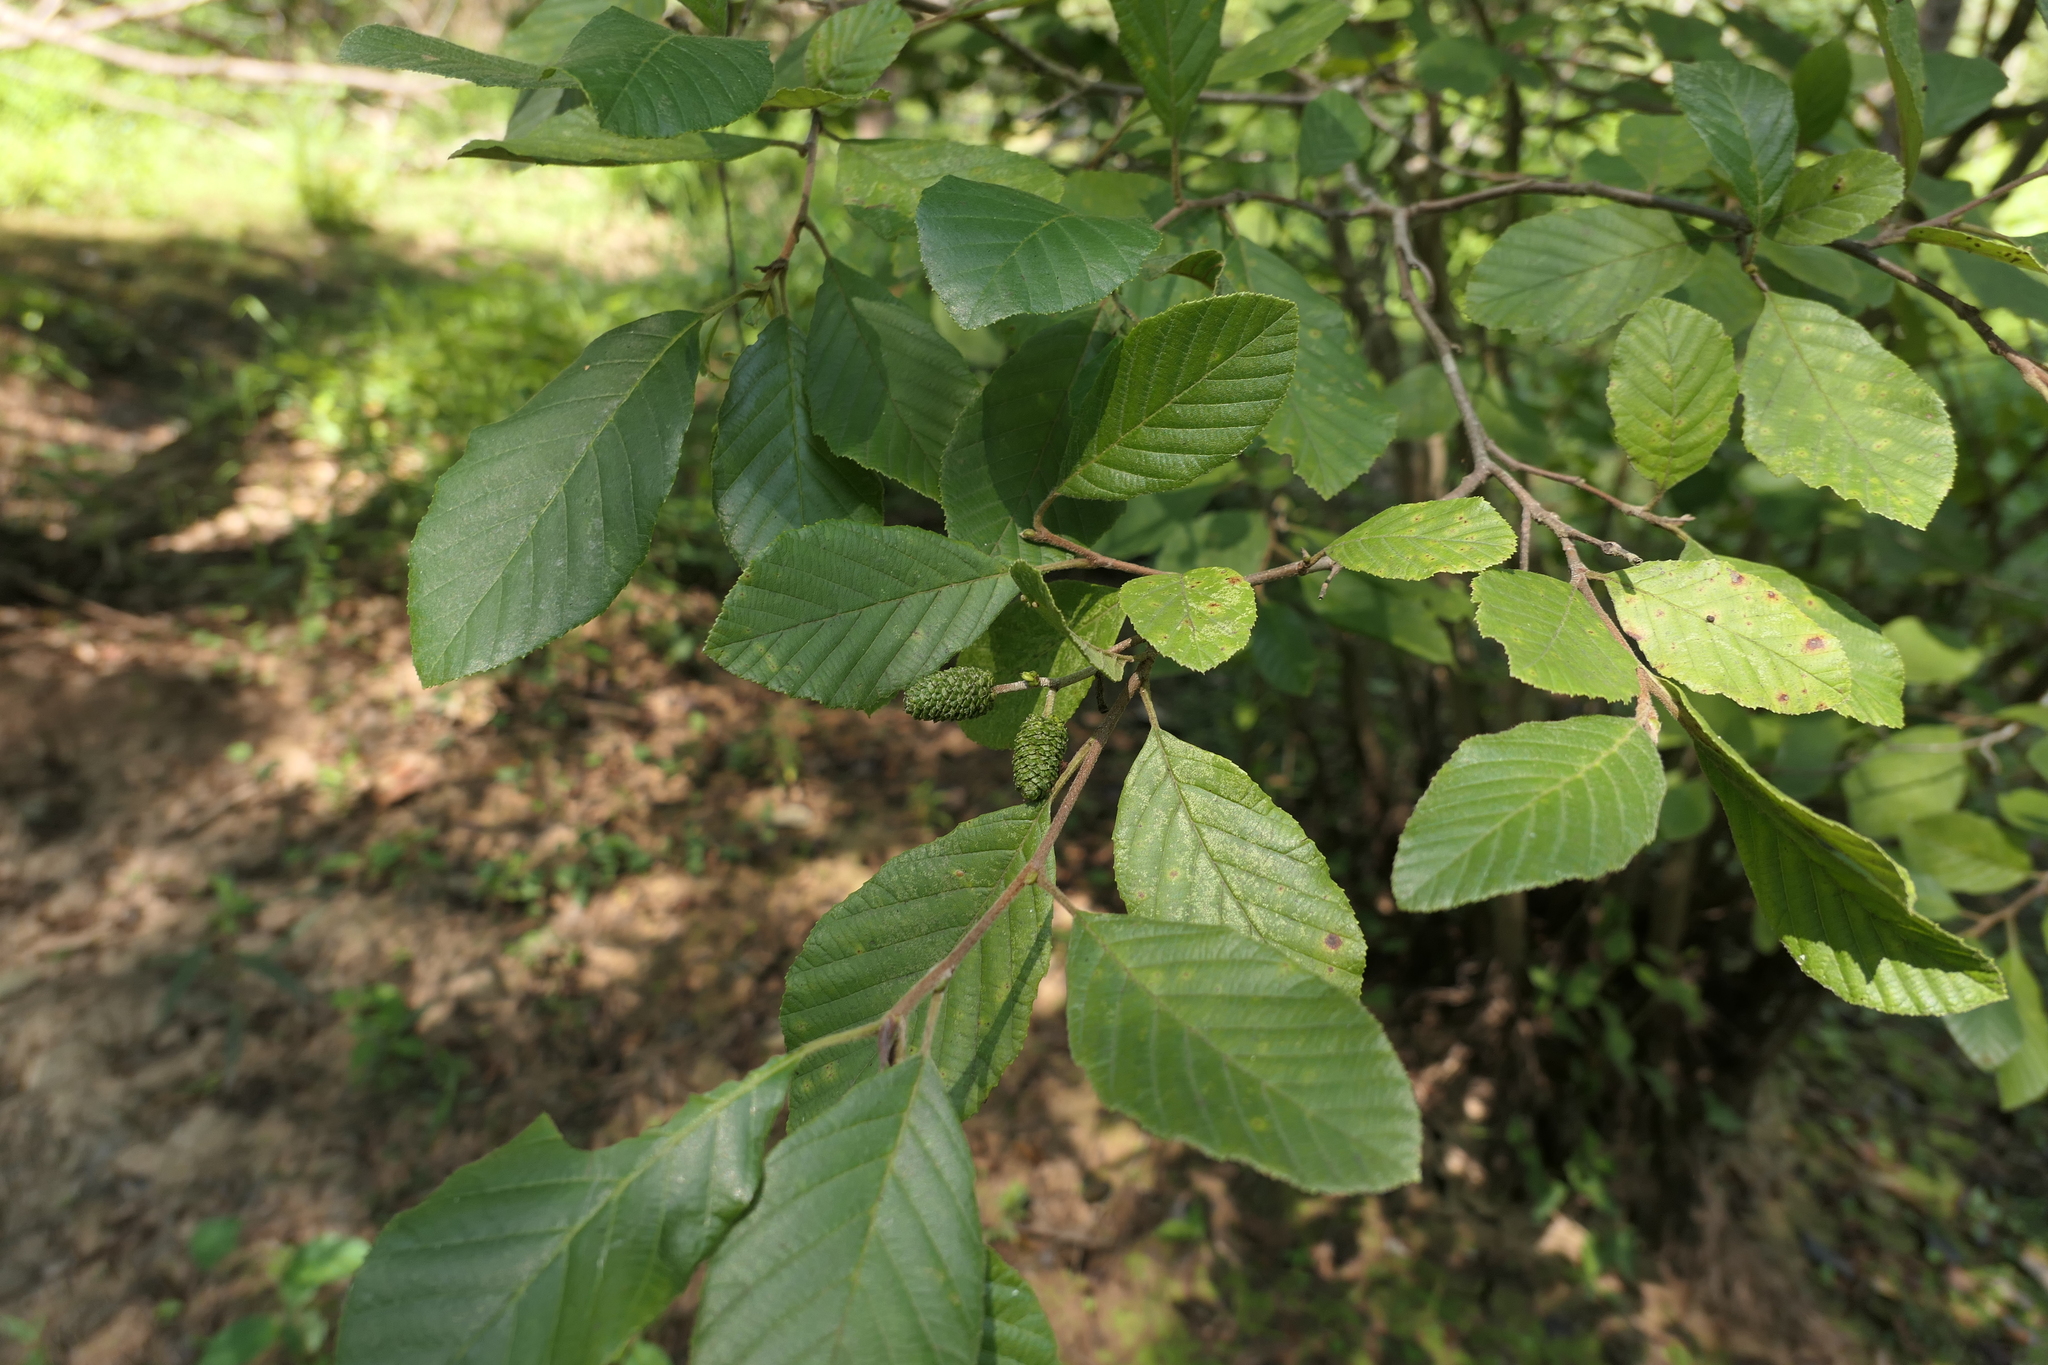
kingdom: Plantae
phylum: Tracheophyta
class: Magnoliopsida
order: Fagales
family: Betulaceae
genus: Alnus
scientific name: Alnus serrulata
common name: Hazel alder
